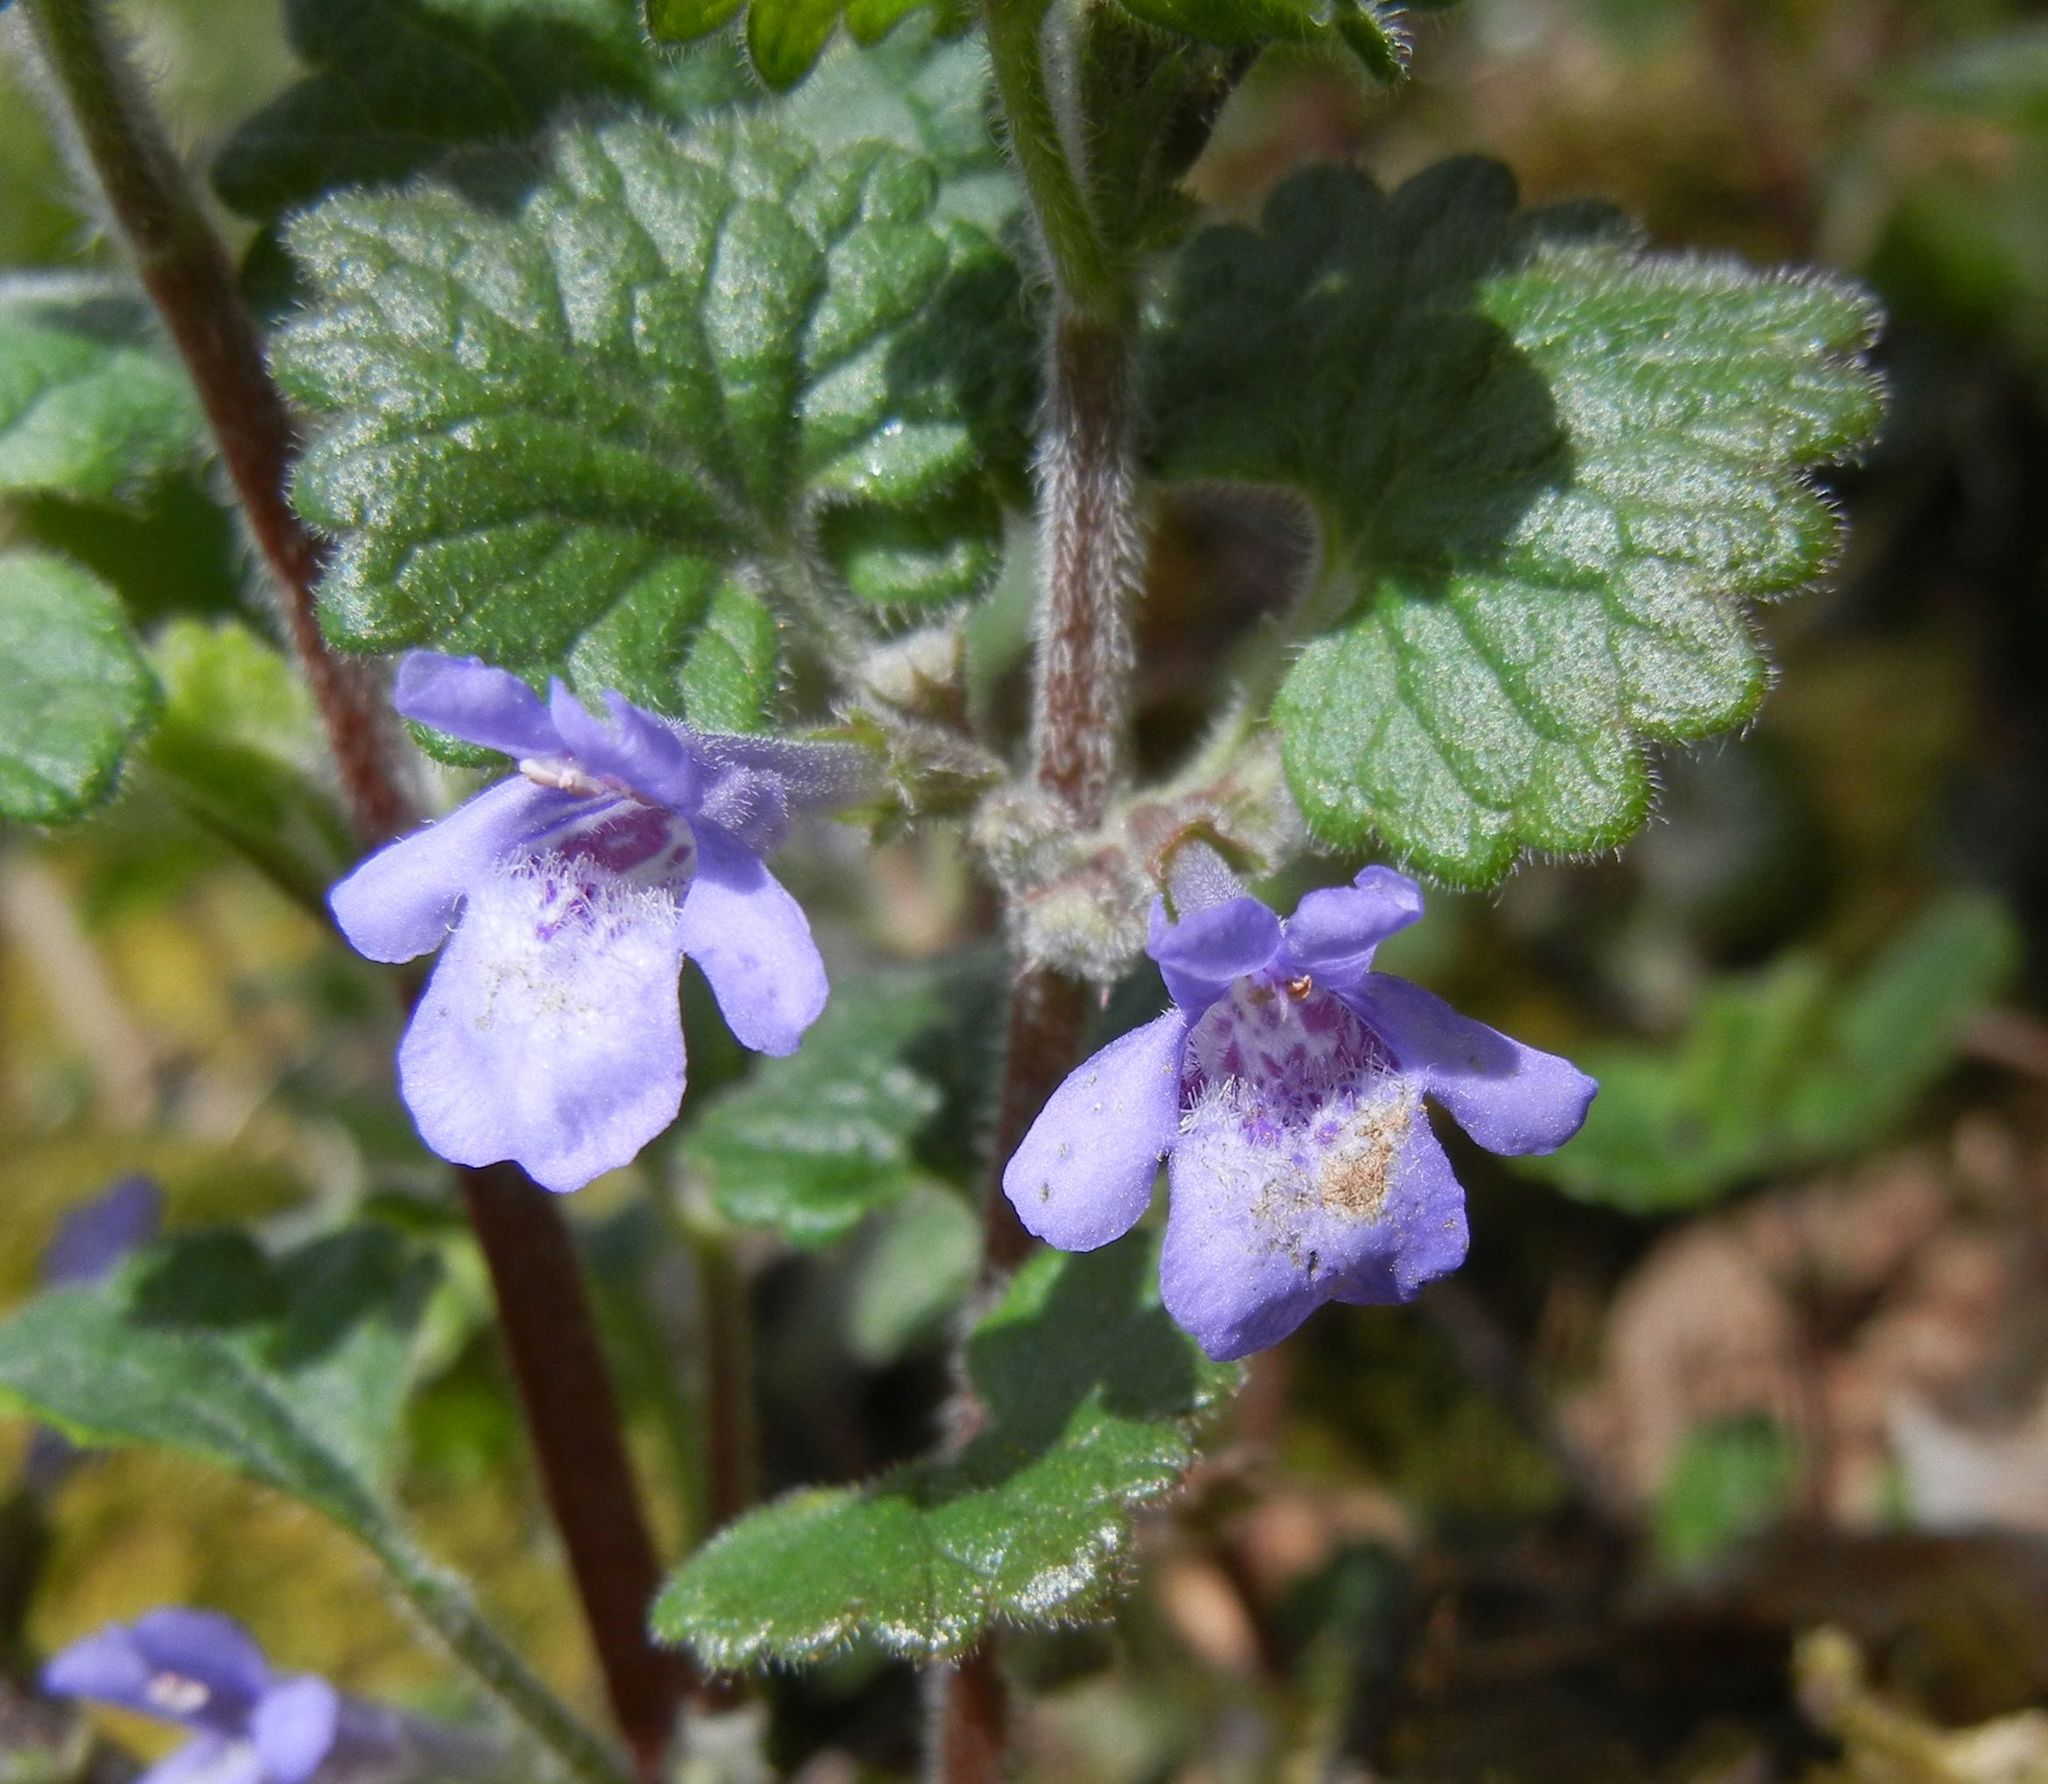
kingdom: Plantae
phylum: Tracheophyta
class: Magnoliopsida
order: Lamiales
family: Lamiaceae
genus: Glechoma
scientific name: Glechoma hederacea
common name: Ground ivy
